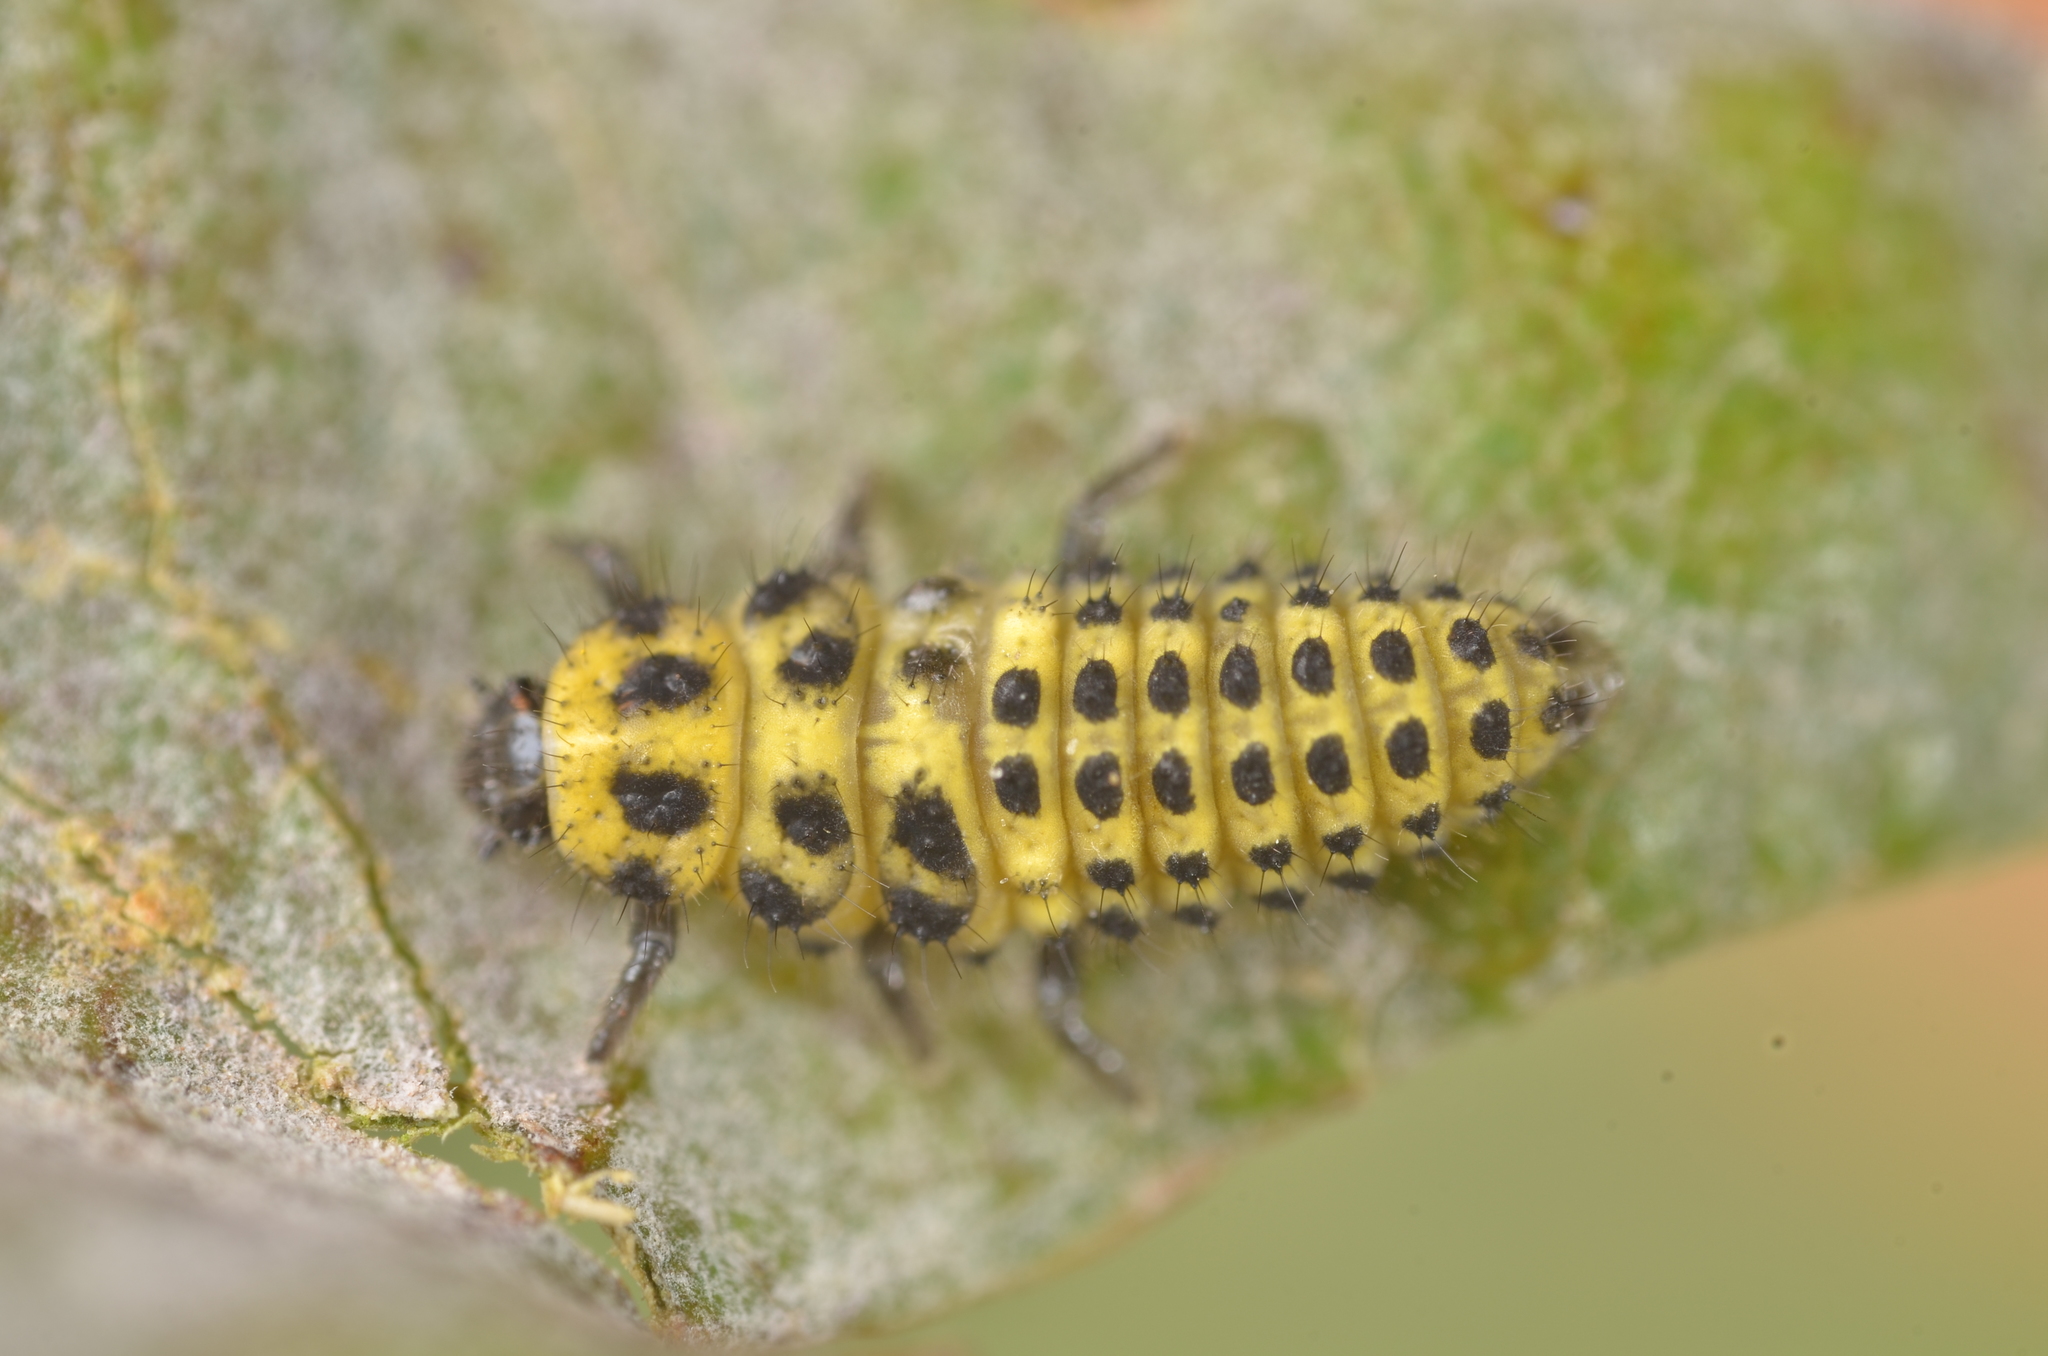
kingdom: Animalia
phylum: Arthropoda
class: Insecta
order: Coleoptera
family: Coccinellidae
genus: Psyllobora
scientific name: Psyllobora vigintiduopunctata
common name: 22-spot ladybird
